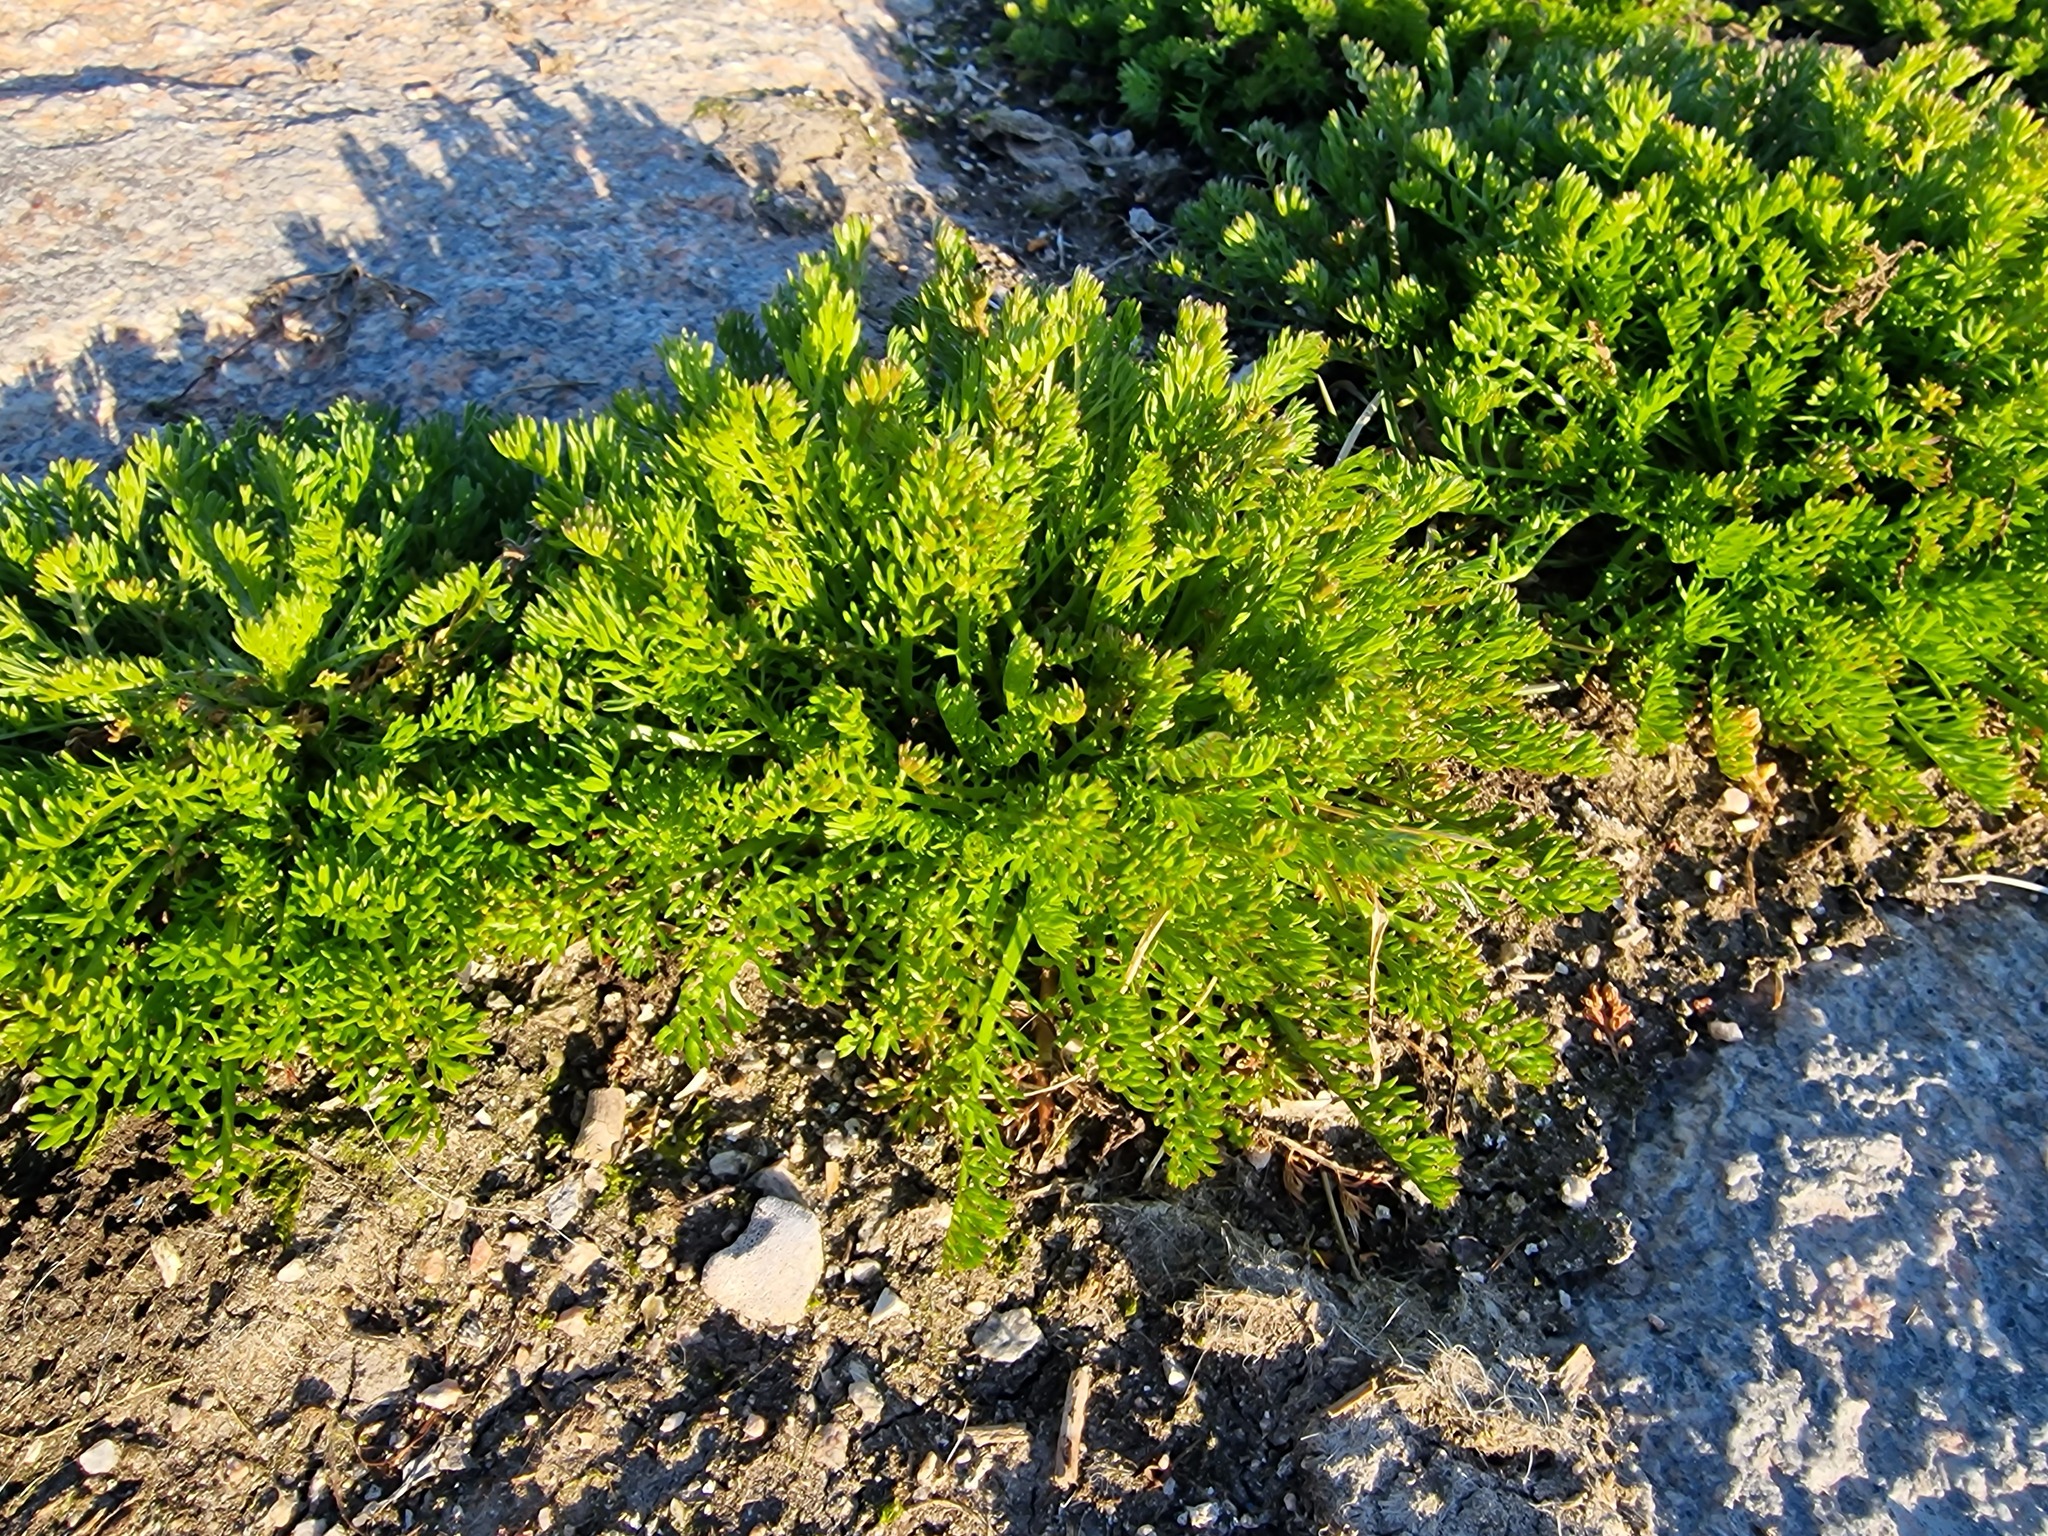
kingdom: Plantae
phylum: Tracheophyta
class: Magnoliopsida
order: Asterales
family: Asteraceae
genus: Tripleurospermum
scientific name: Tripleurospermum maritimum
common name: Sea mayweed
